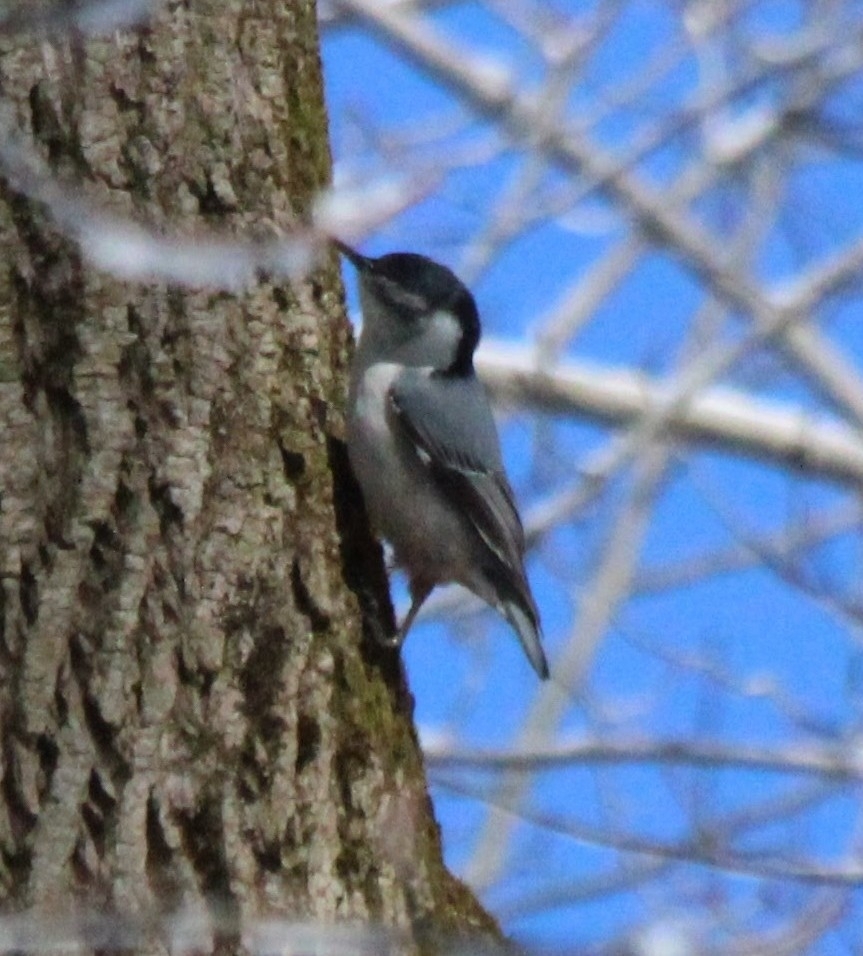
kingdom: Animalia
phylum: Chordata
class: Aves
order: Passeriformes
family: Sittidae
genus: Sitta
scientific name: Sitta carolinensis
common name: White-breasted nuthatch
